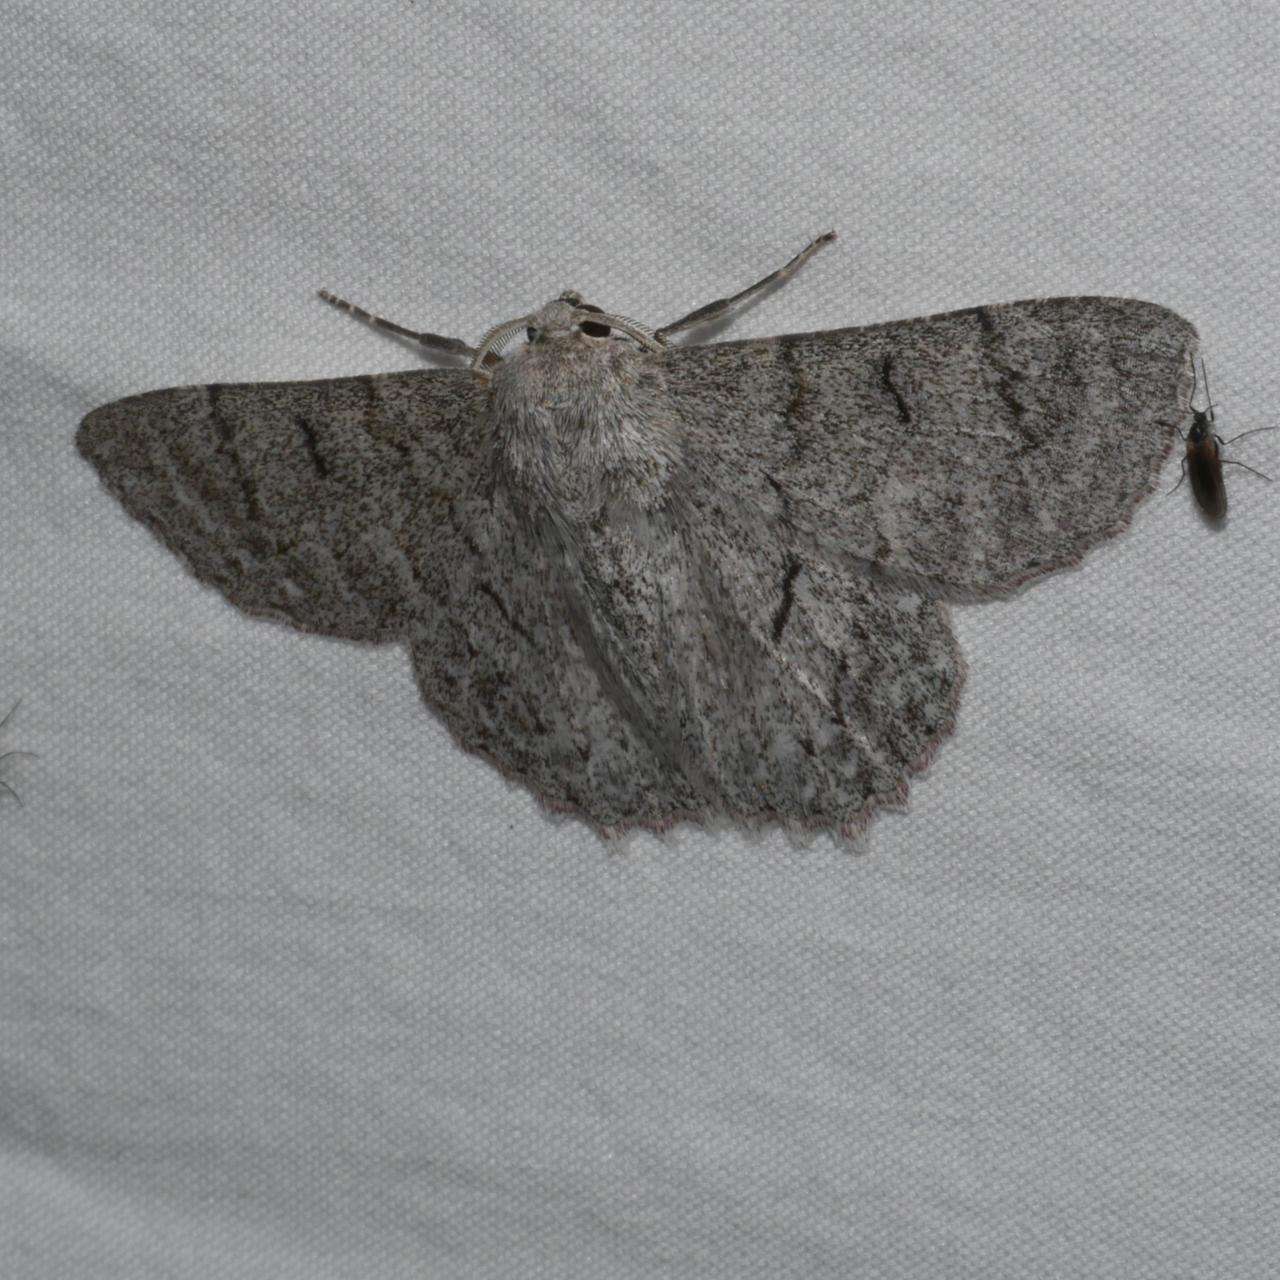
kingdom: Animalia
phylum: Arthropoda
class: Insecta
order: Lepidoptera
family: Geometridae
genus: Crypsiphona
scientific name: Crypsiphona ocultaria
